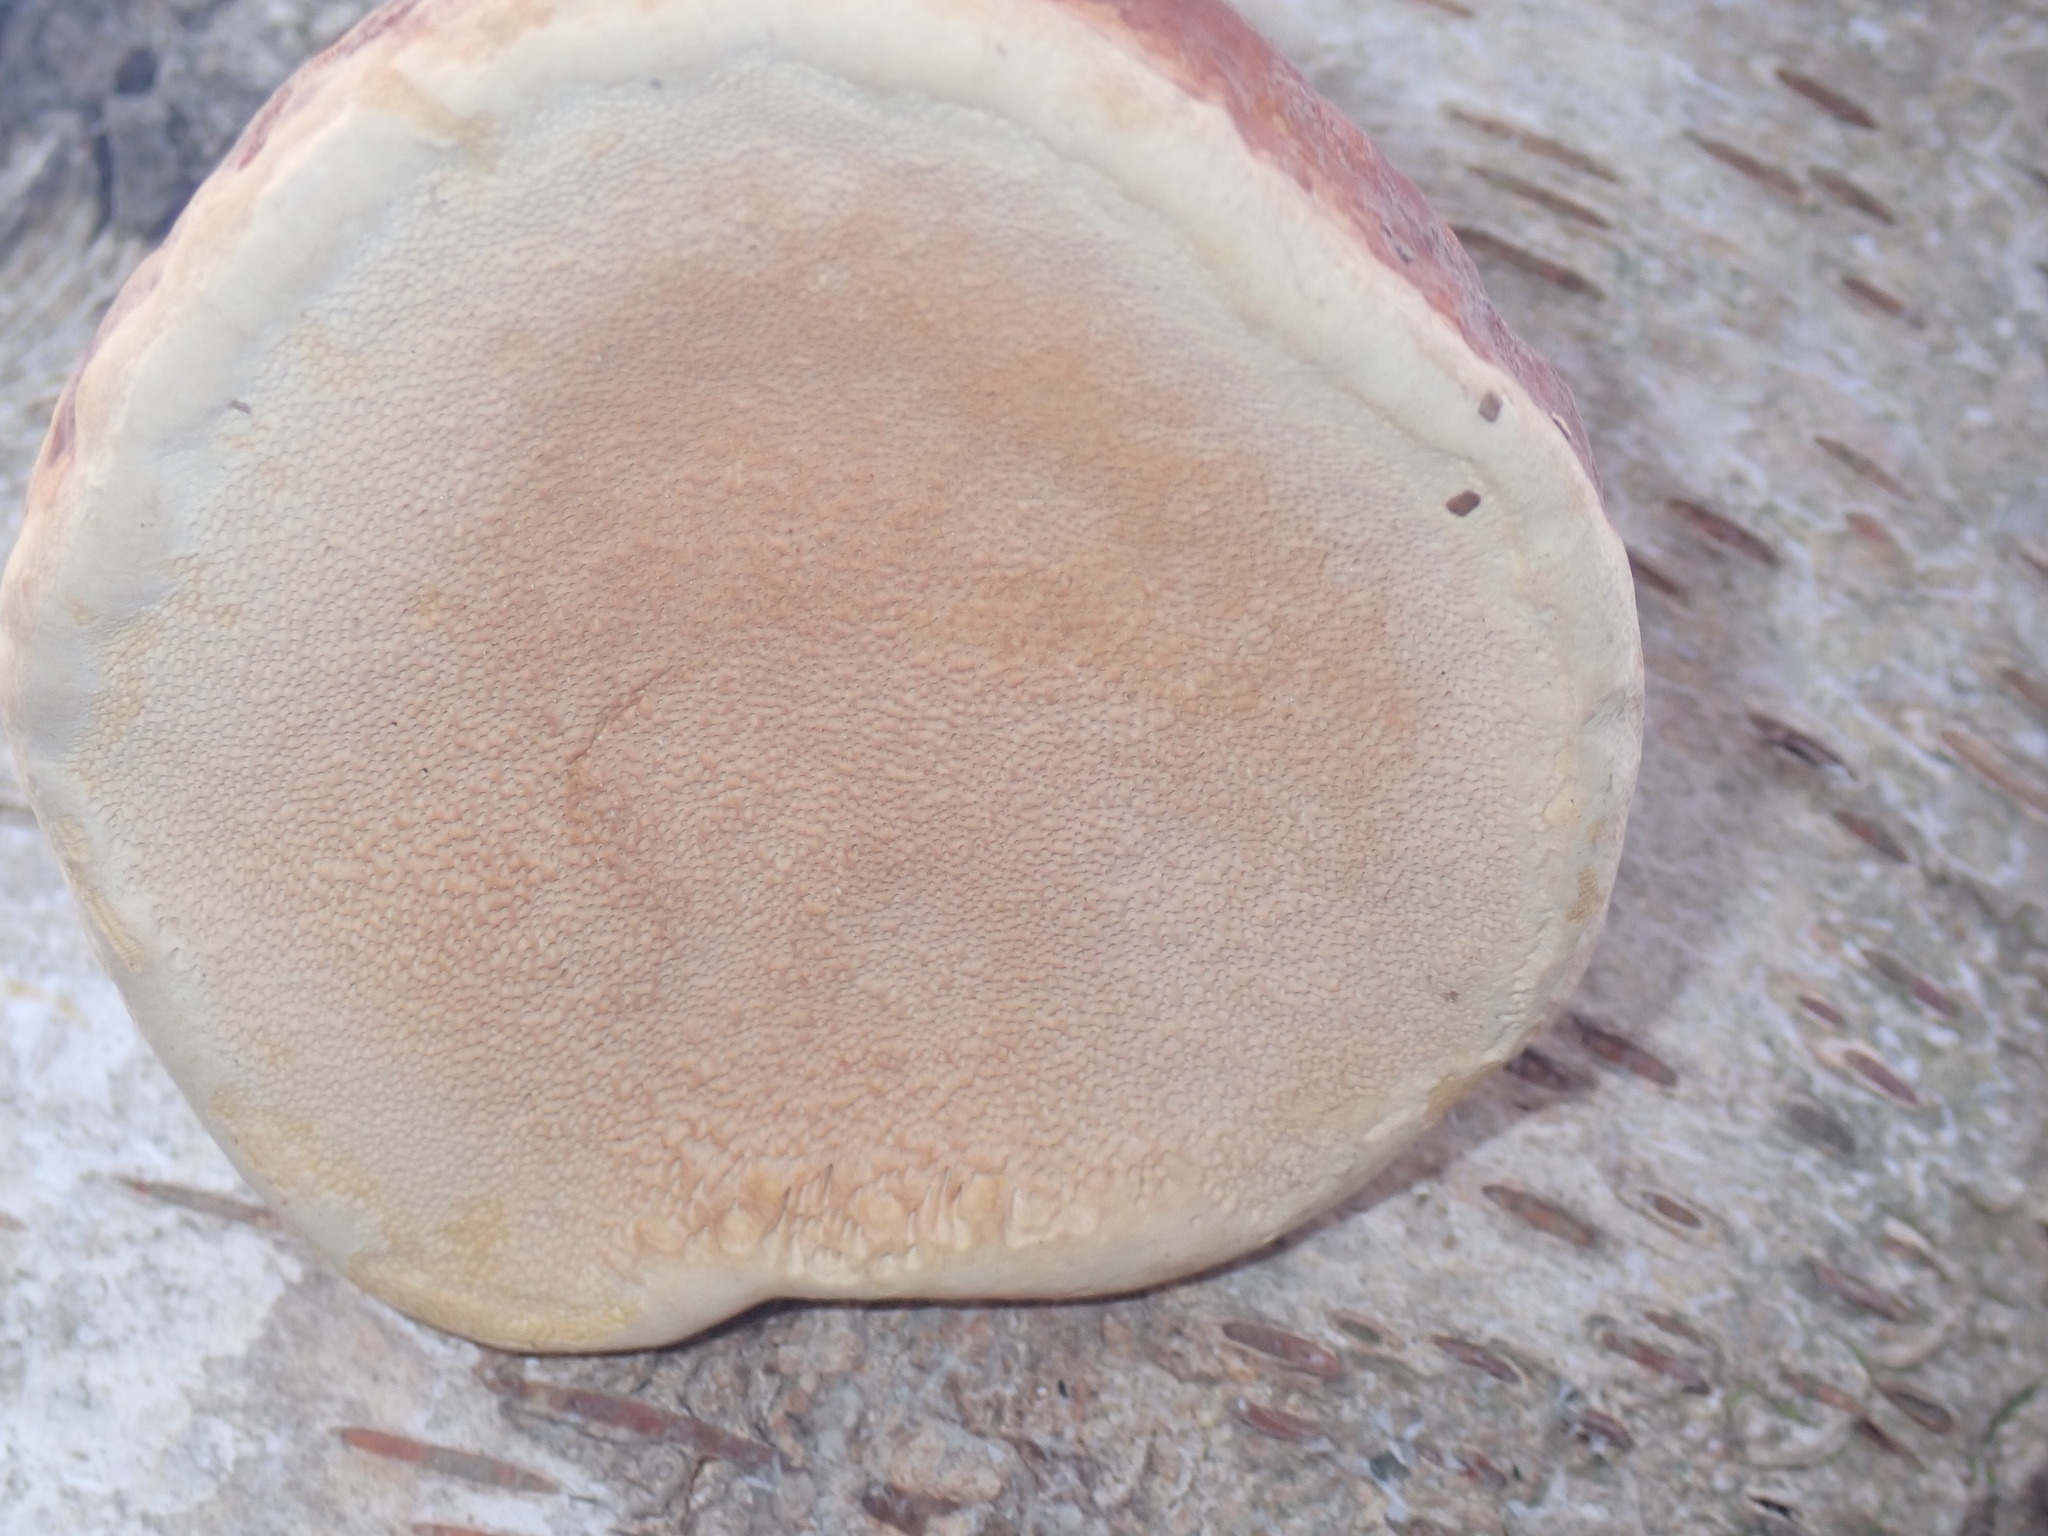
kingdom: Fungi
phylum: Basidiomycota
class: Agaricomycetes
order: Polyporales
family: Fomitopsidaceae
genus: Fomitopsis
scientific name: Fomitopsis pinicola
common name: Red-belted bracket
